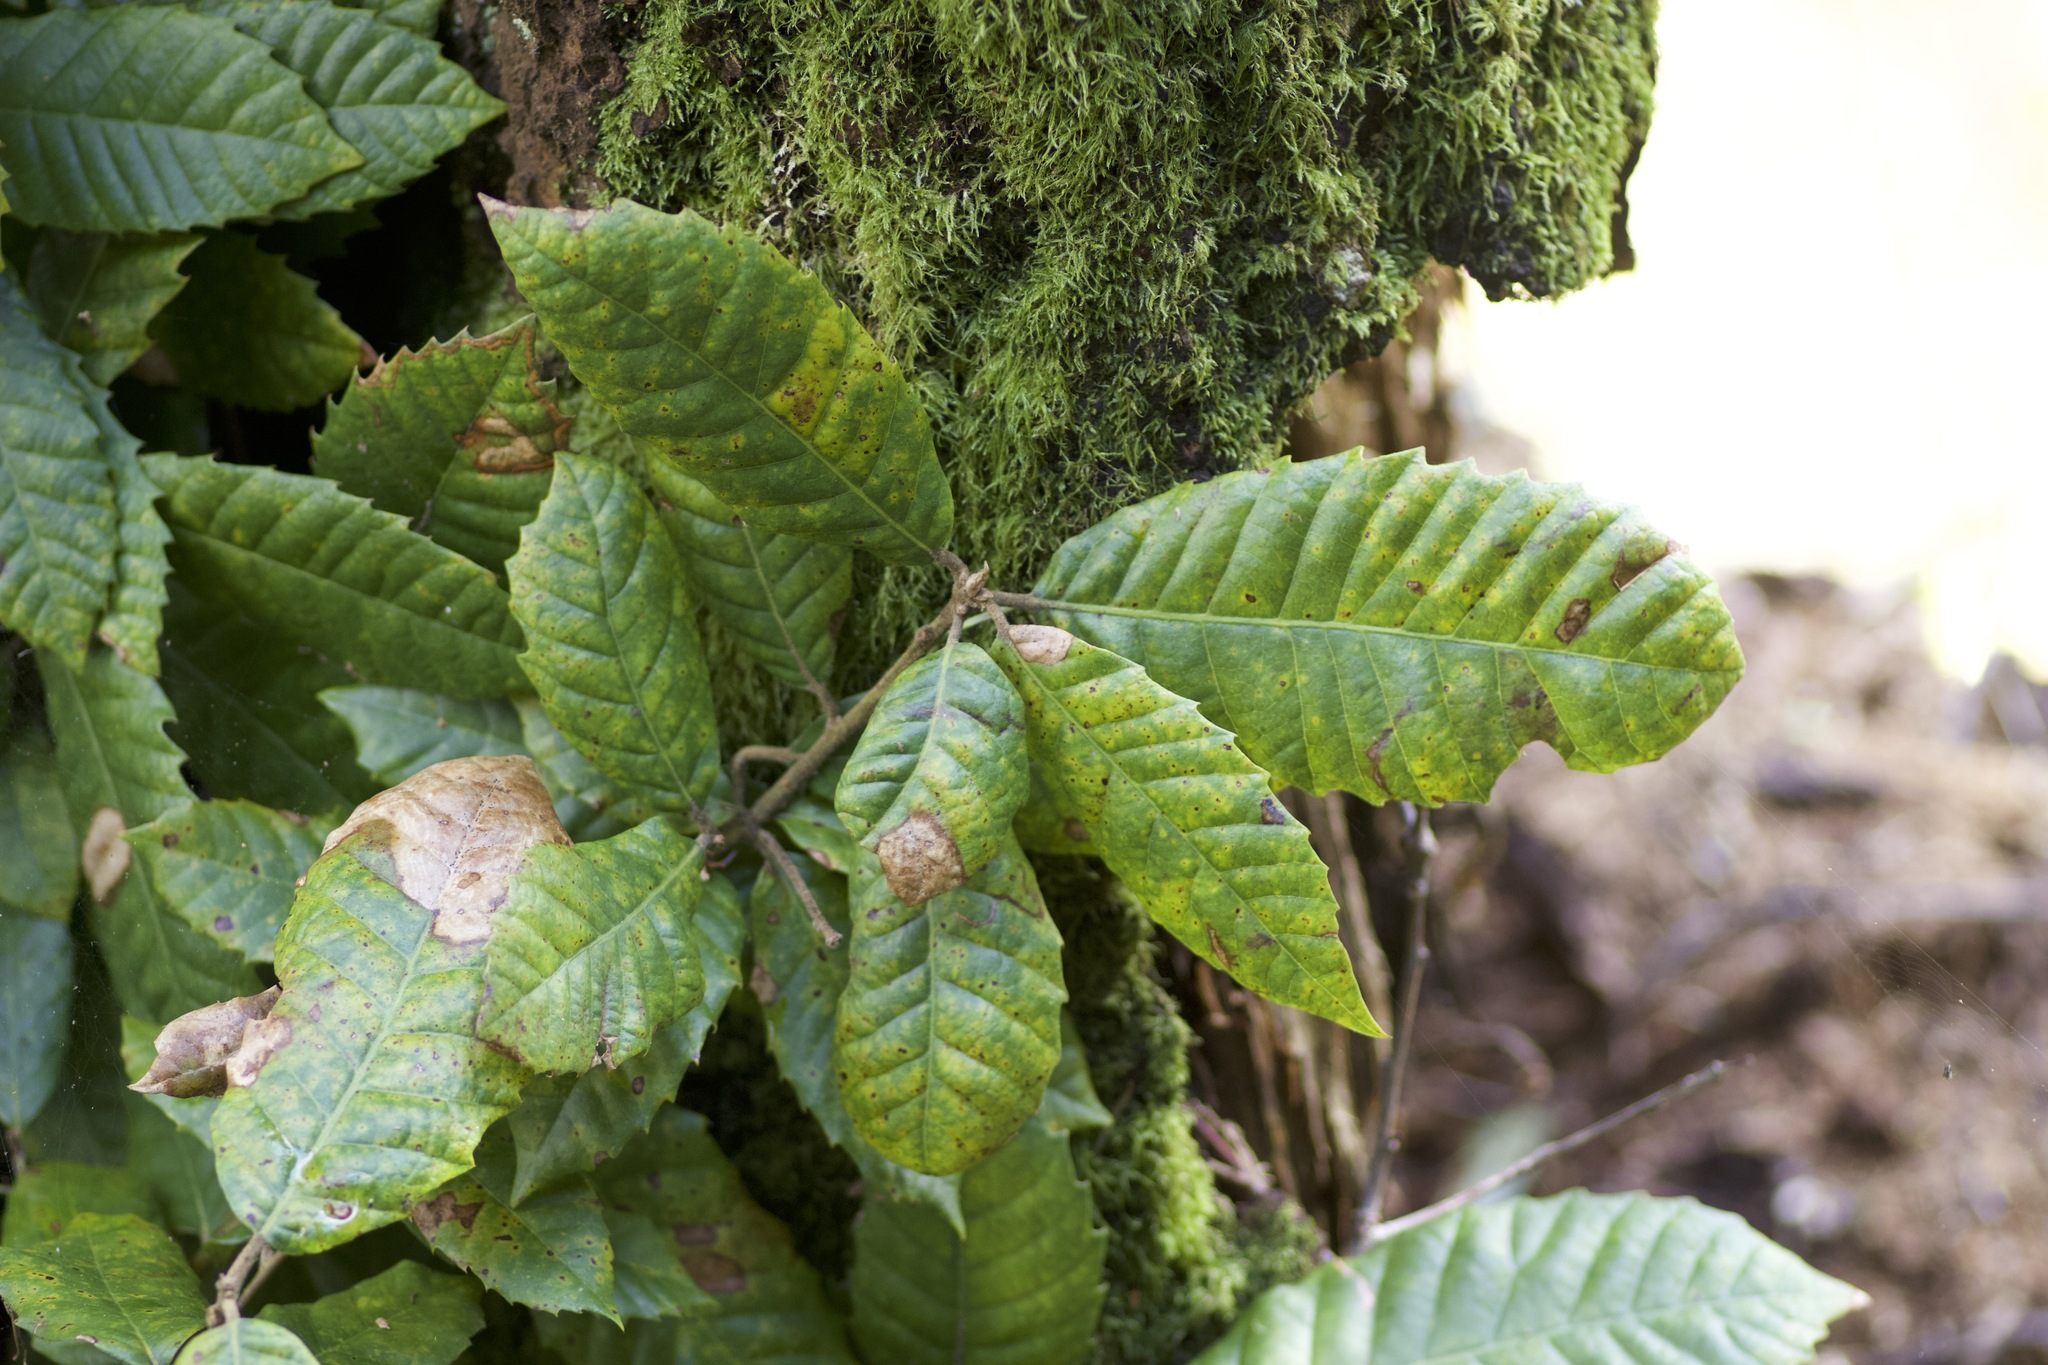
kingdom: Plantae
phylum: Tracheophyta
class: Magnoliopsida
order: Fagales
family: Fagaceae
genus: Notholithocarpus
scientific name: Notholithocarpus densiflorus
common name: Tan bark oak
